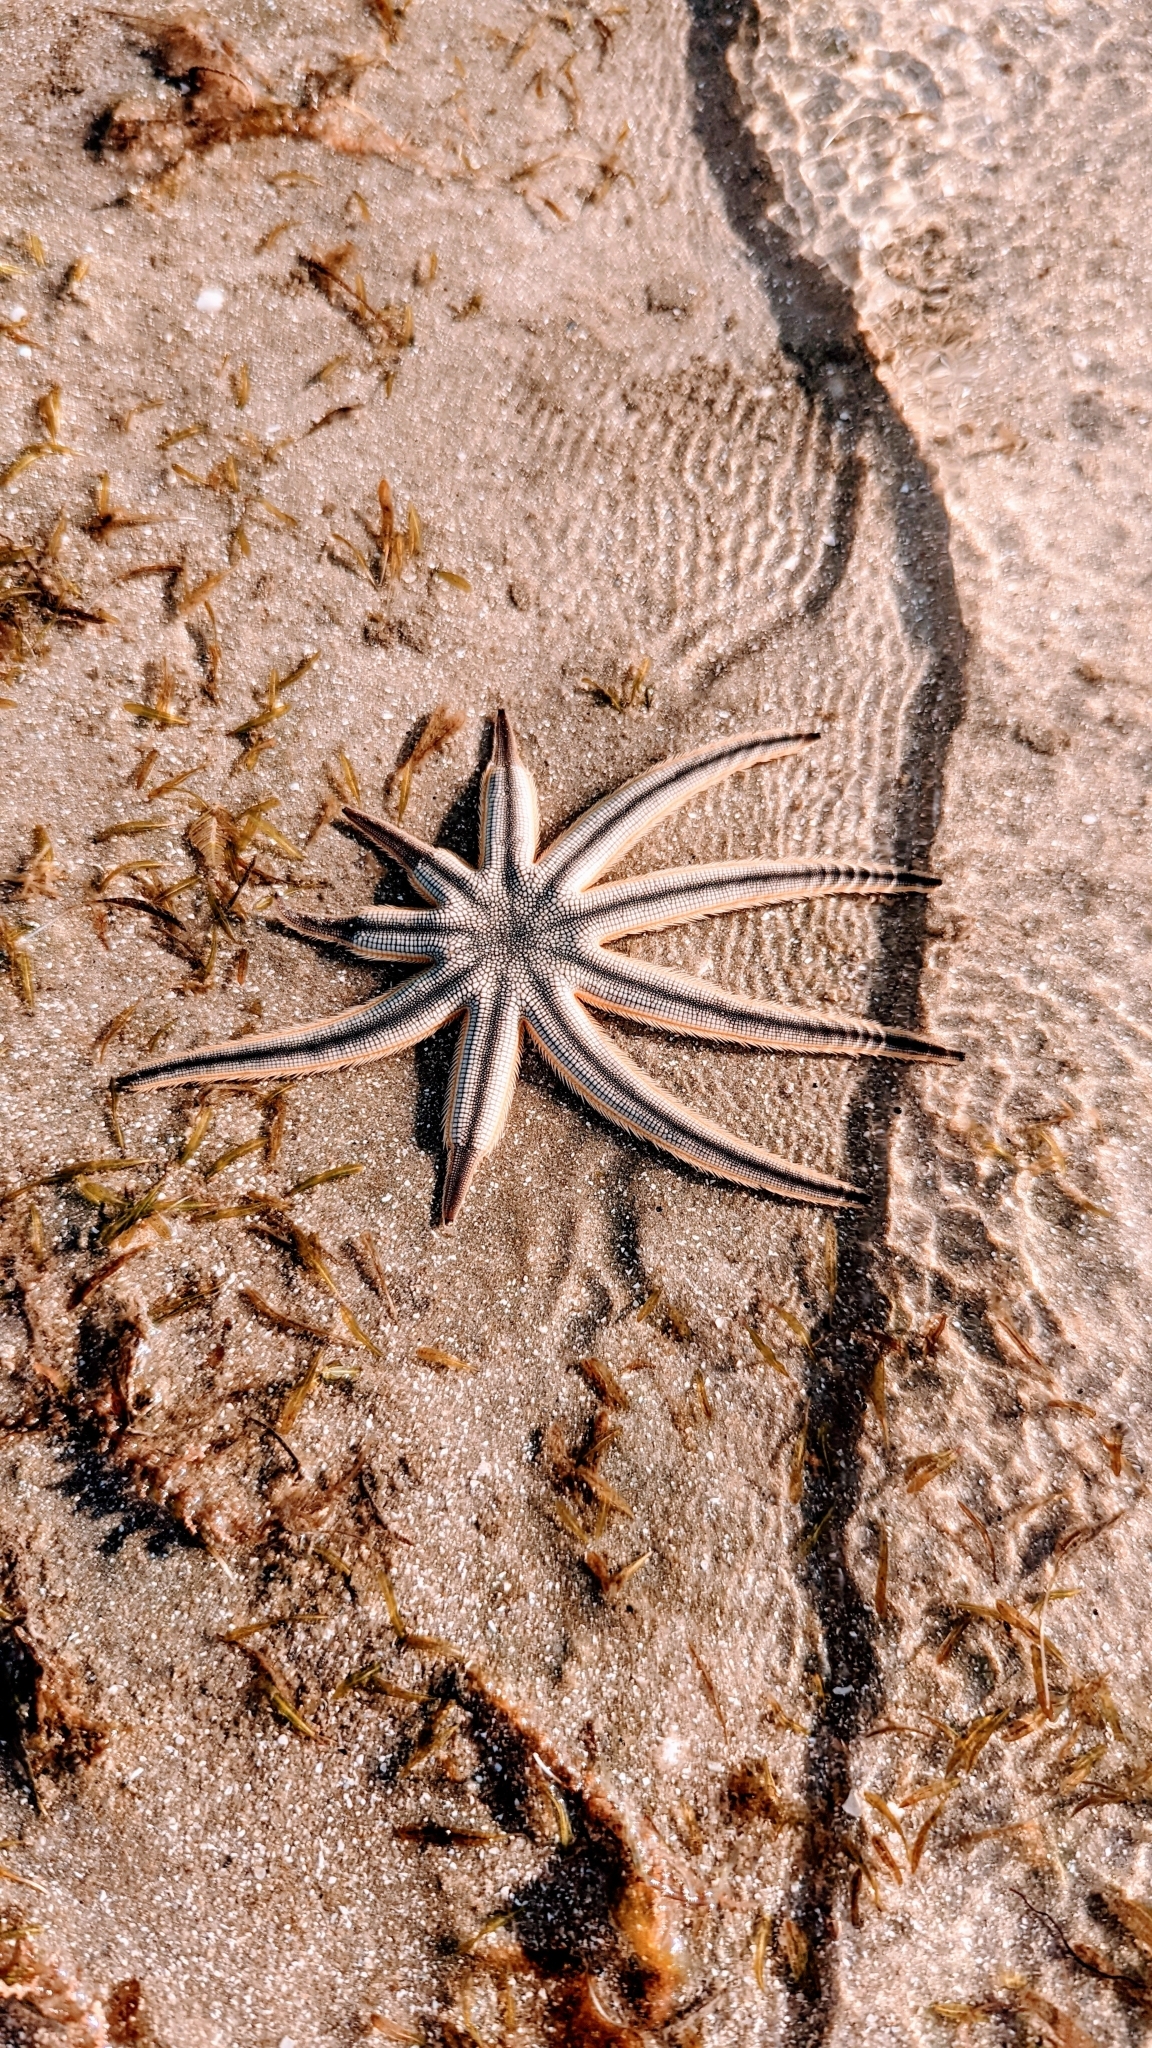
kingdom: Animalia
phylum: Echinodermata
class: Asteroidea
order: Paxillosida
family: Luidiidae
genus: Luidia
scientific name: Luidia senegalensis
